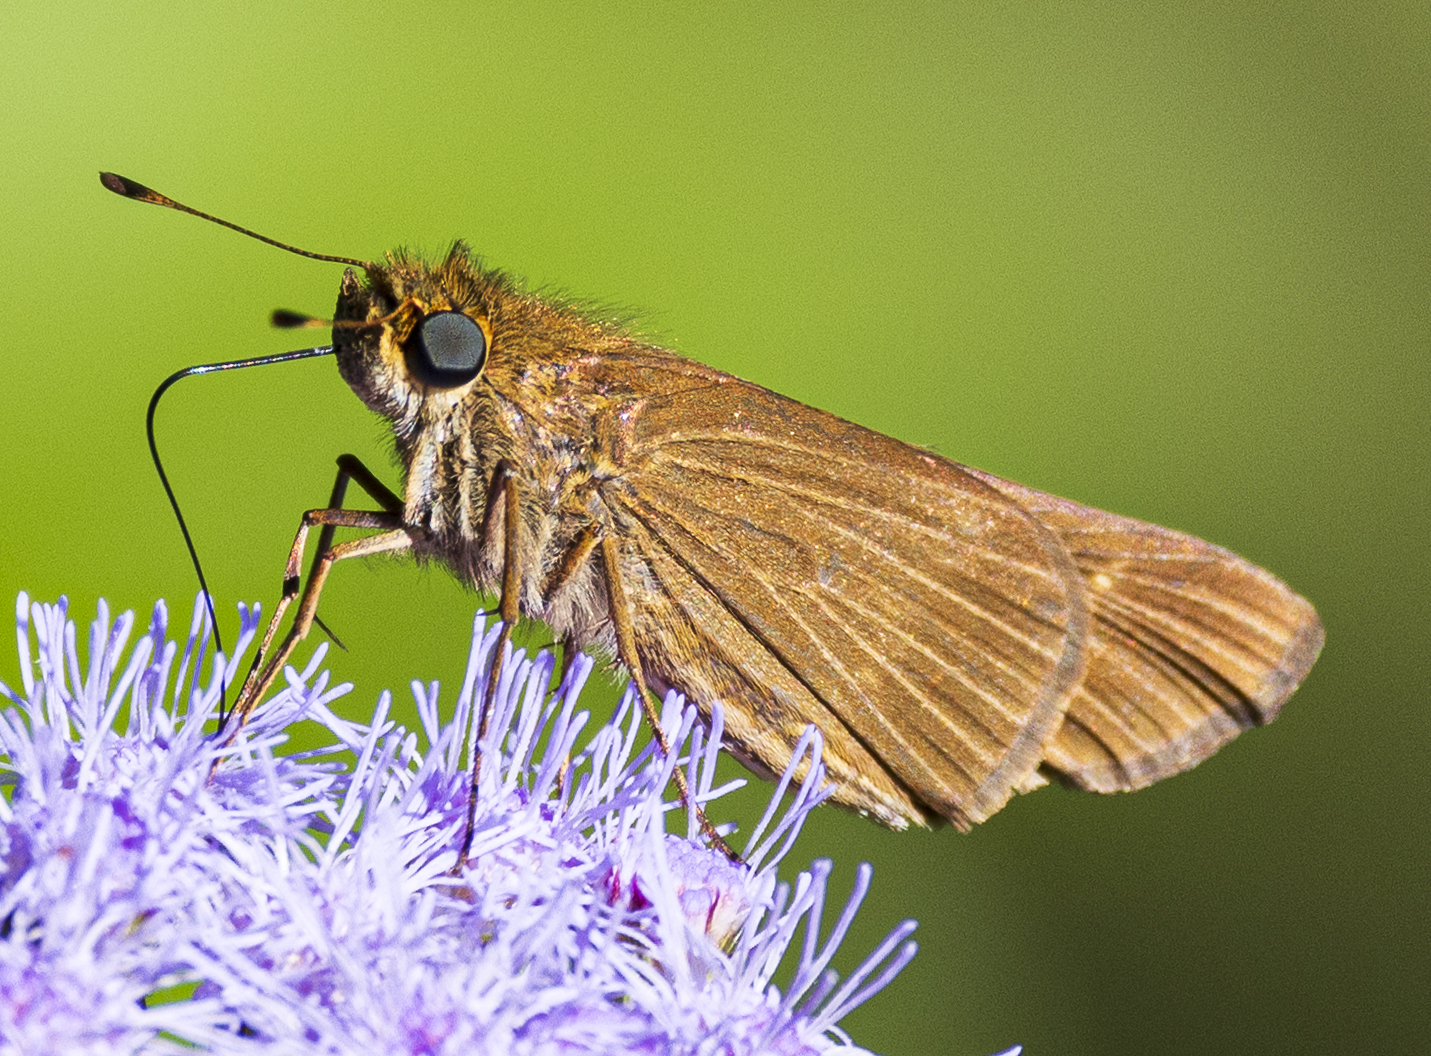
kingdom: Animalia
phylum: Arthropoda
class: Insecta
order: Lepidoptera
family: Hesperiidae
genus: Panoquina
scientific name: Panoquina ocola
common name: Ocola skipper
